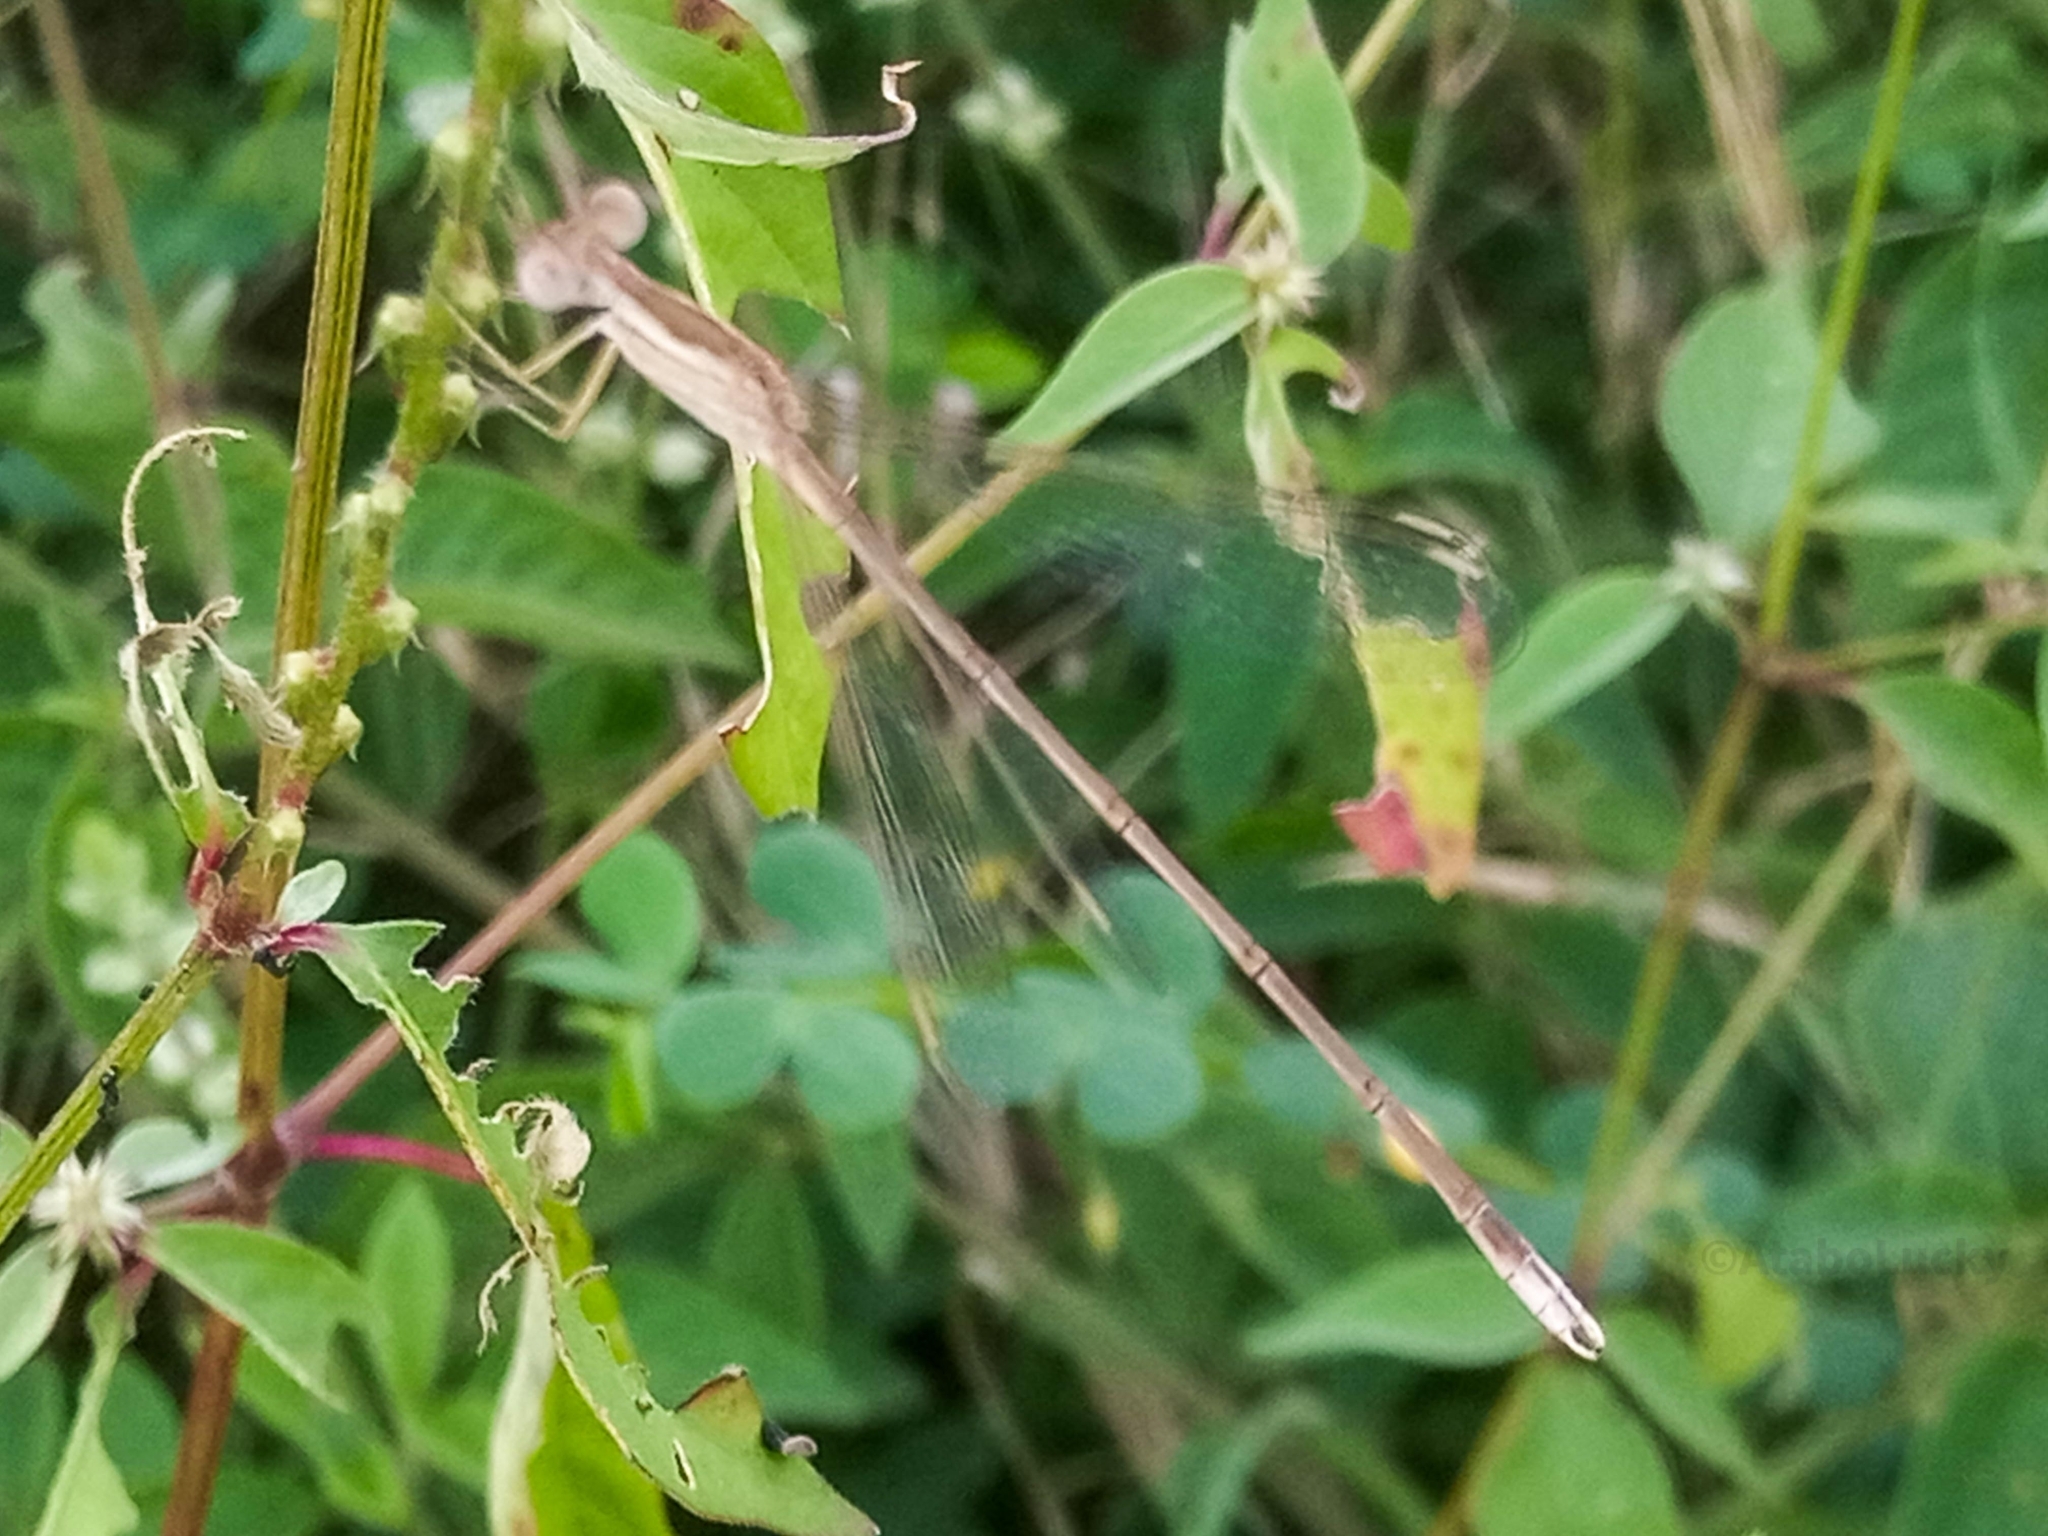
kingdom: Animalia
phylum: Arthropoda
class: Insecta
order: Odonata
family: Lestidae
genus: Lestes
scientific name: Lestes pallidus
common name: Pallid spreadwing
